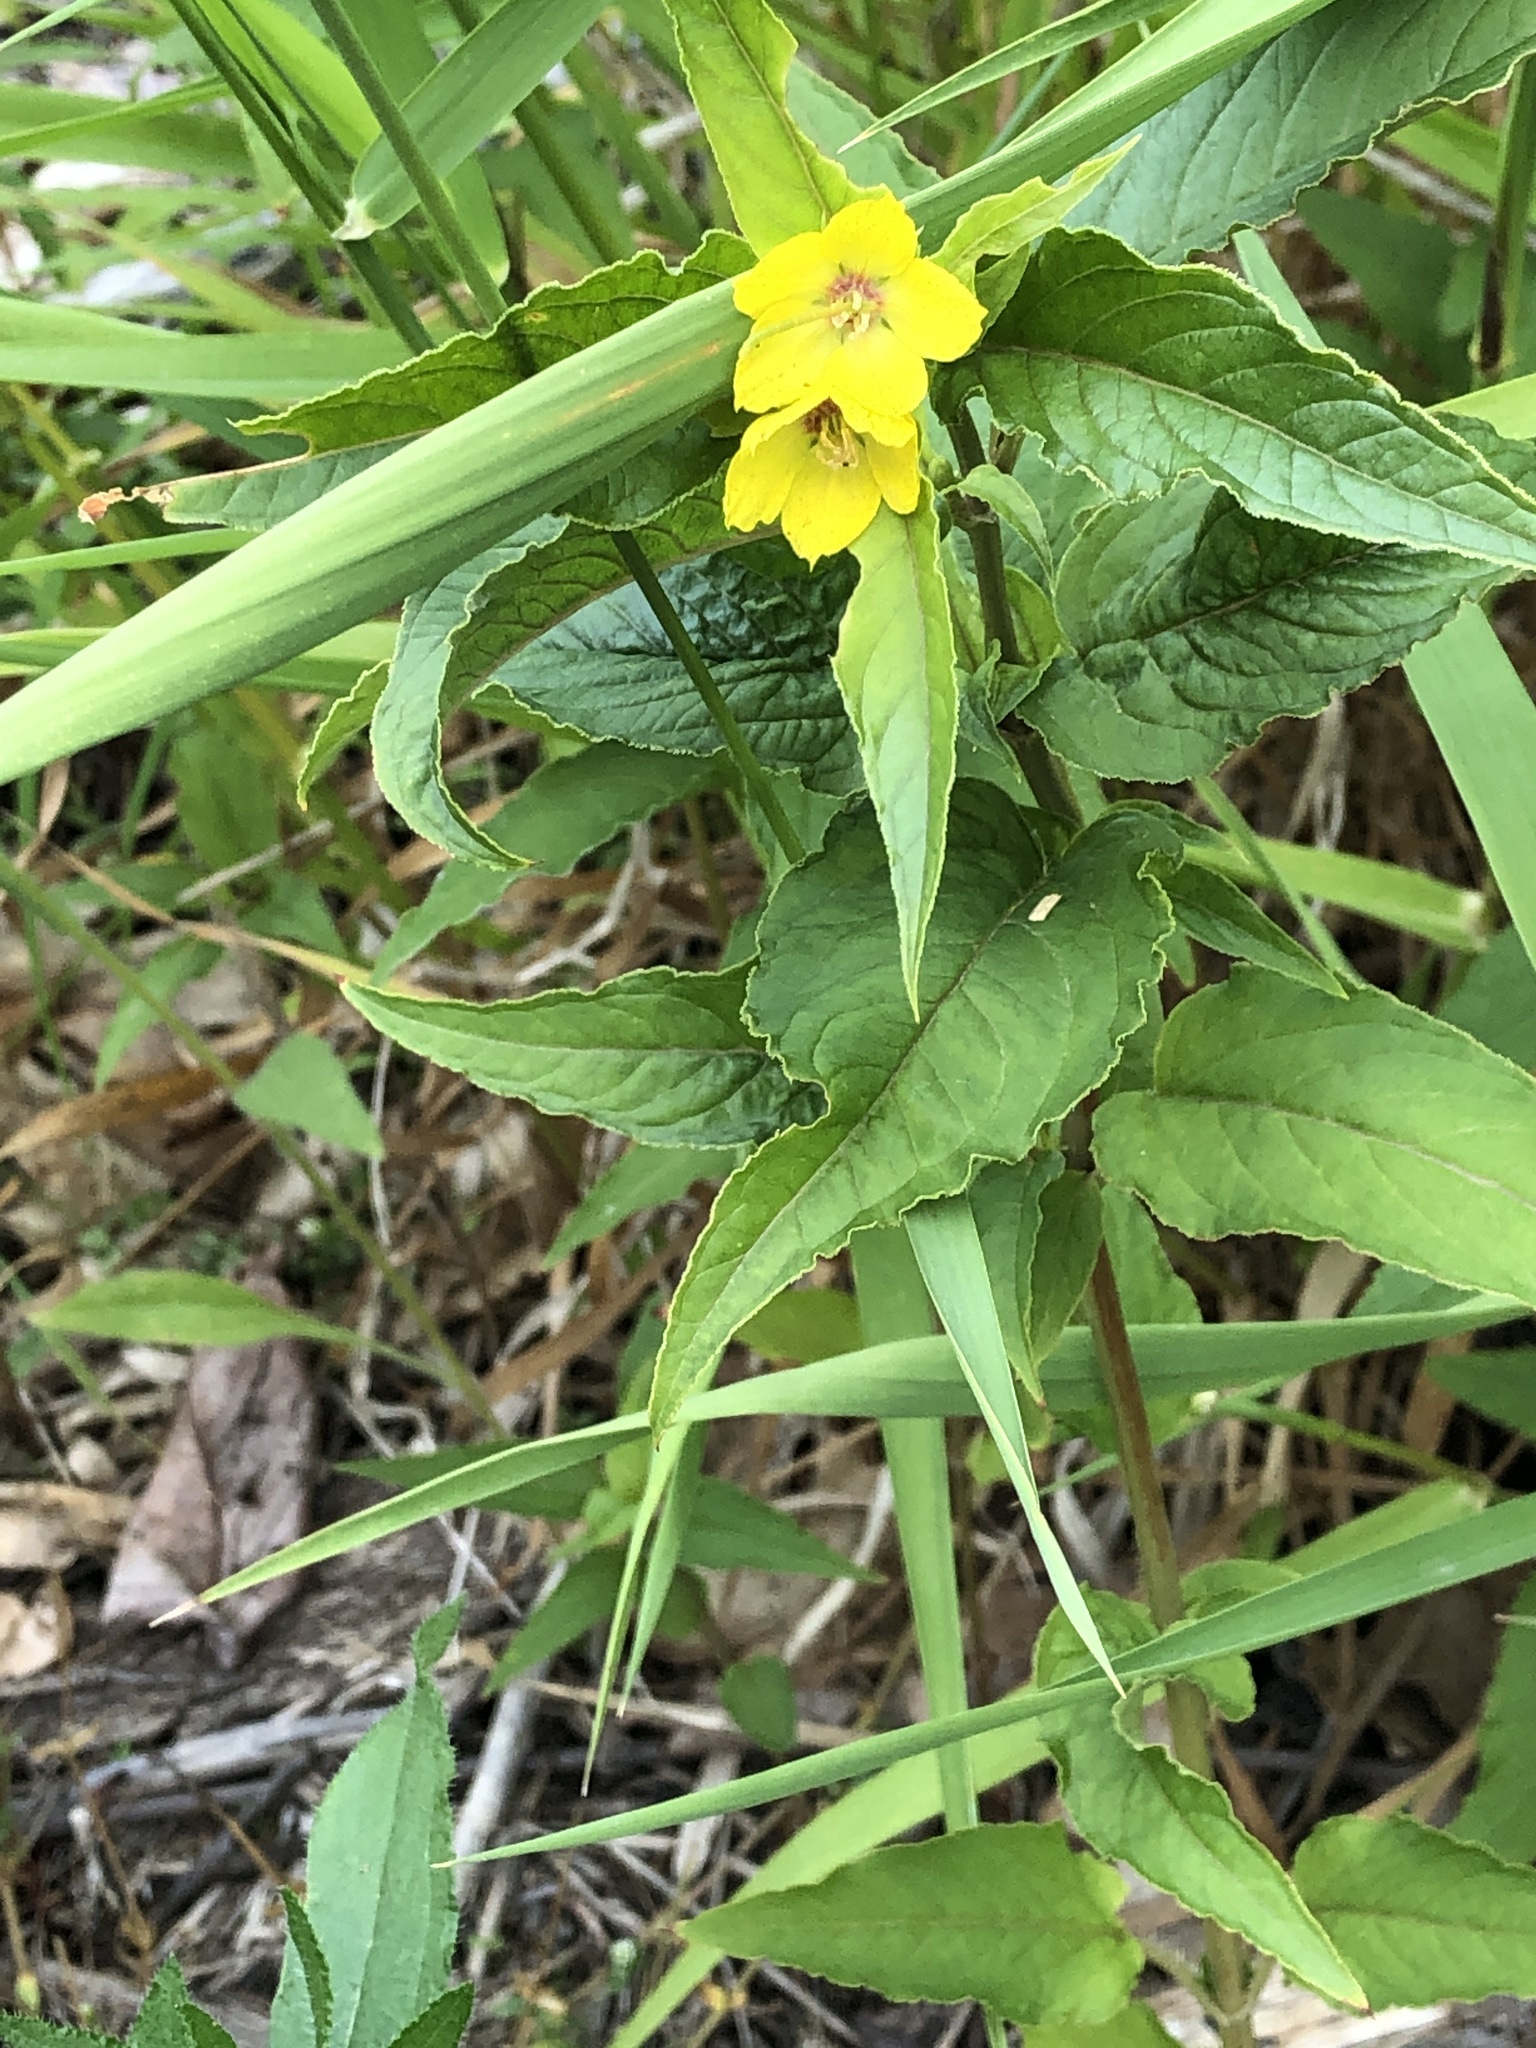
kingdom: Plantae
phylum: Tracheophyta
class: Magnoliopsida
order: Ericales
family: Primulaceae
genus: Lysimachia
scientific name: Lysimachia ciliata
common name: Fringed loosestrife
